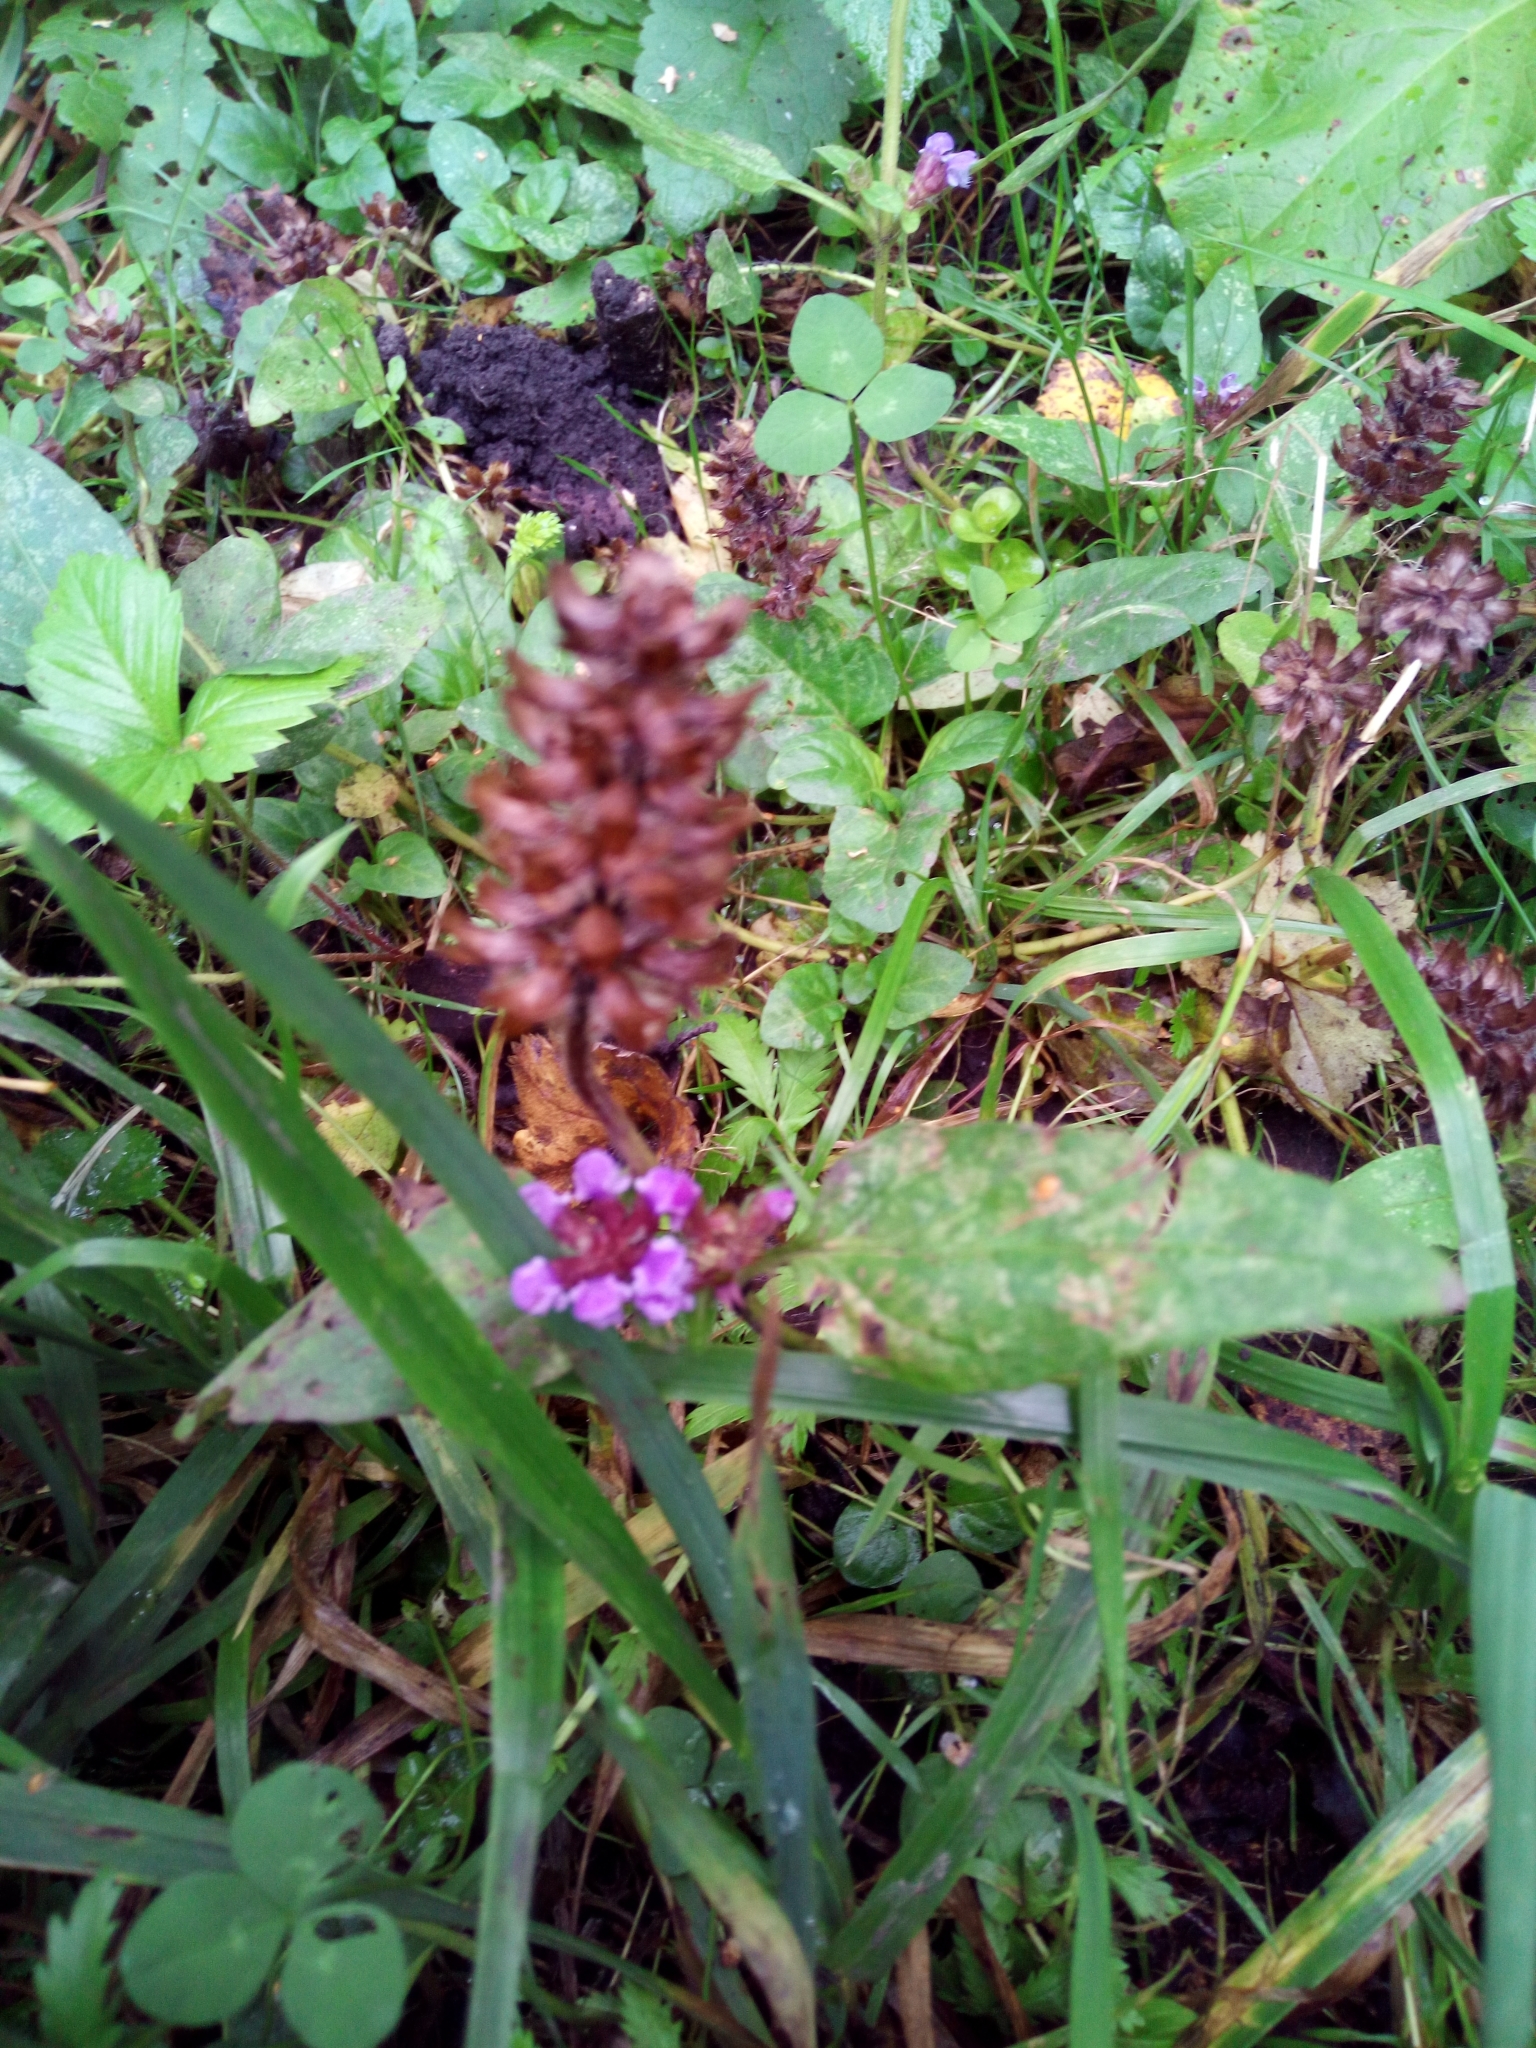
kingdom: Plantae
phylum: Tracheophyta
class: Magnoliopsida
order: Lamiales
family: Lamiaceae
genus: Prunella
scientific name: Prunella vulgaris
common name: Heal-all
